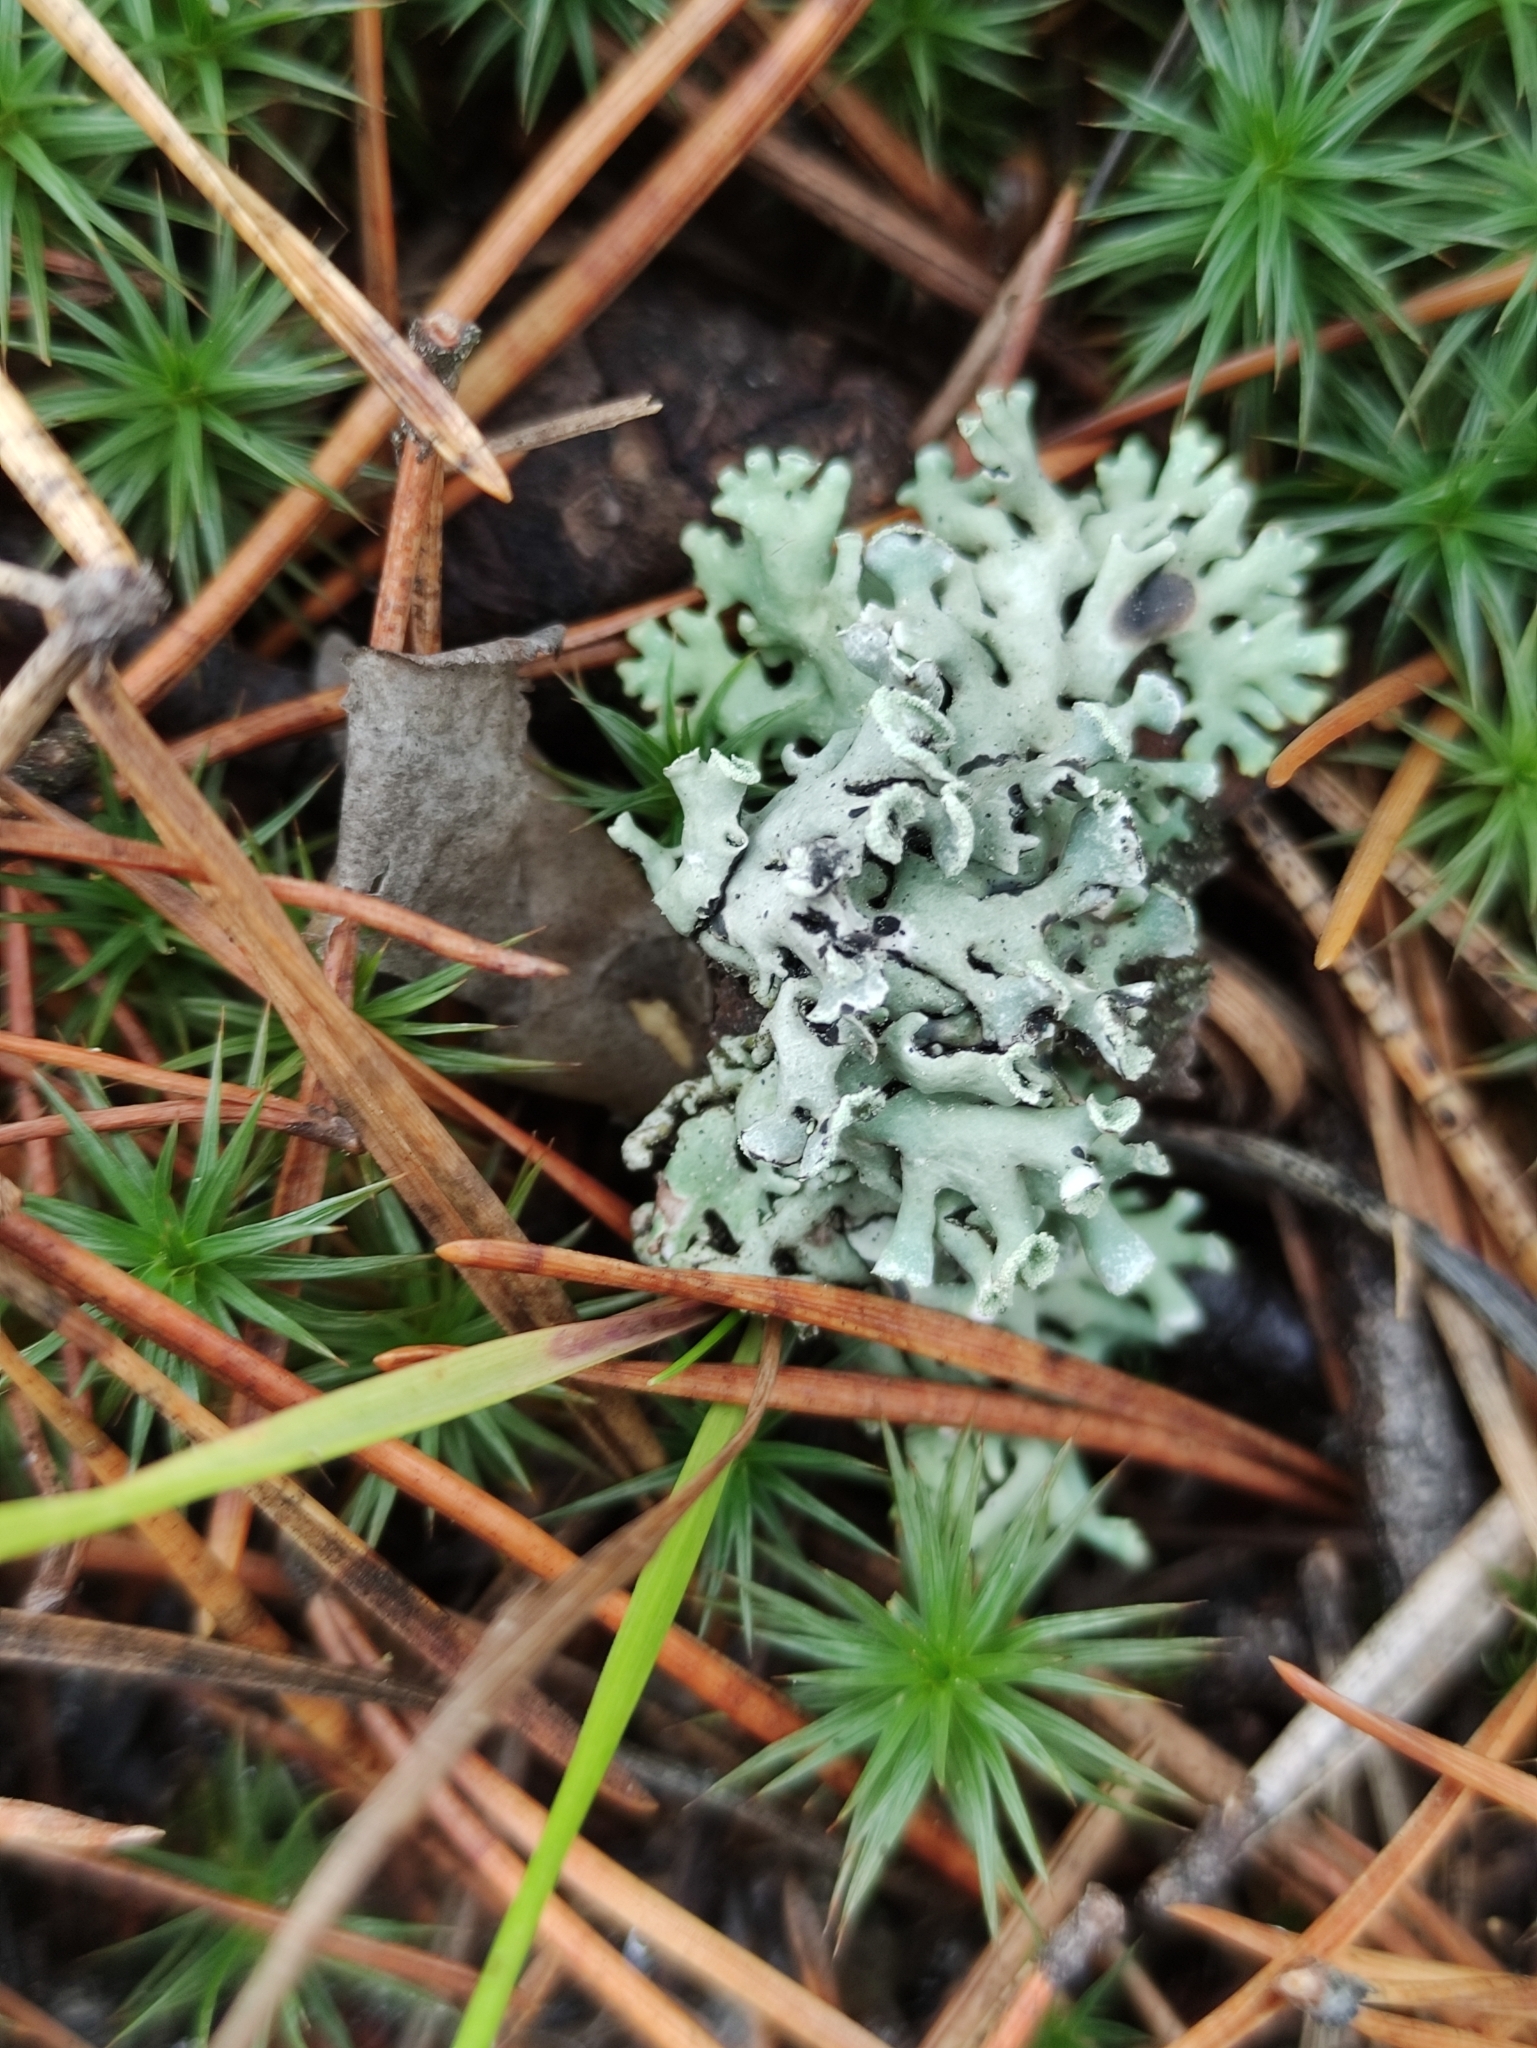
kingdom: Fungi
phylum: Ascomycota
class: Lecanoromycetes
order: Lecanorales
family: Parmeliaceae
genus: Hypogymnia
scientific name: Hypogymnia physodes
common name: Dark crottle
